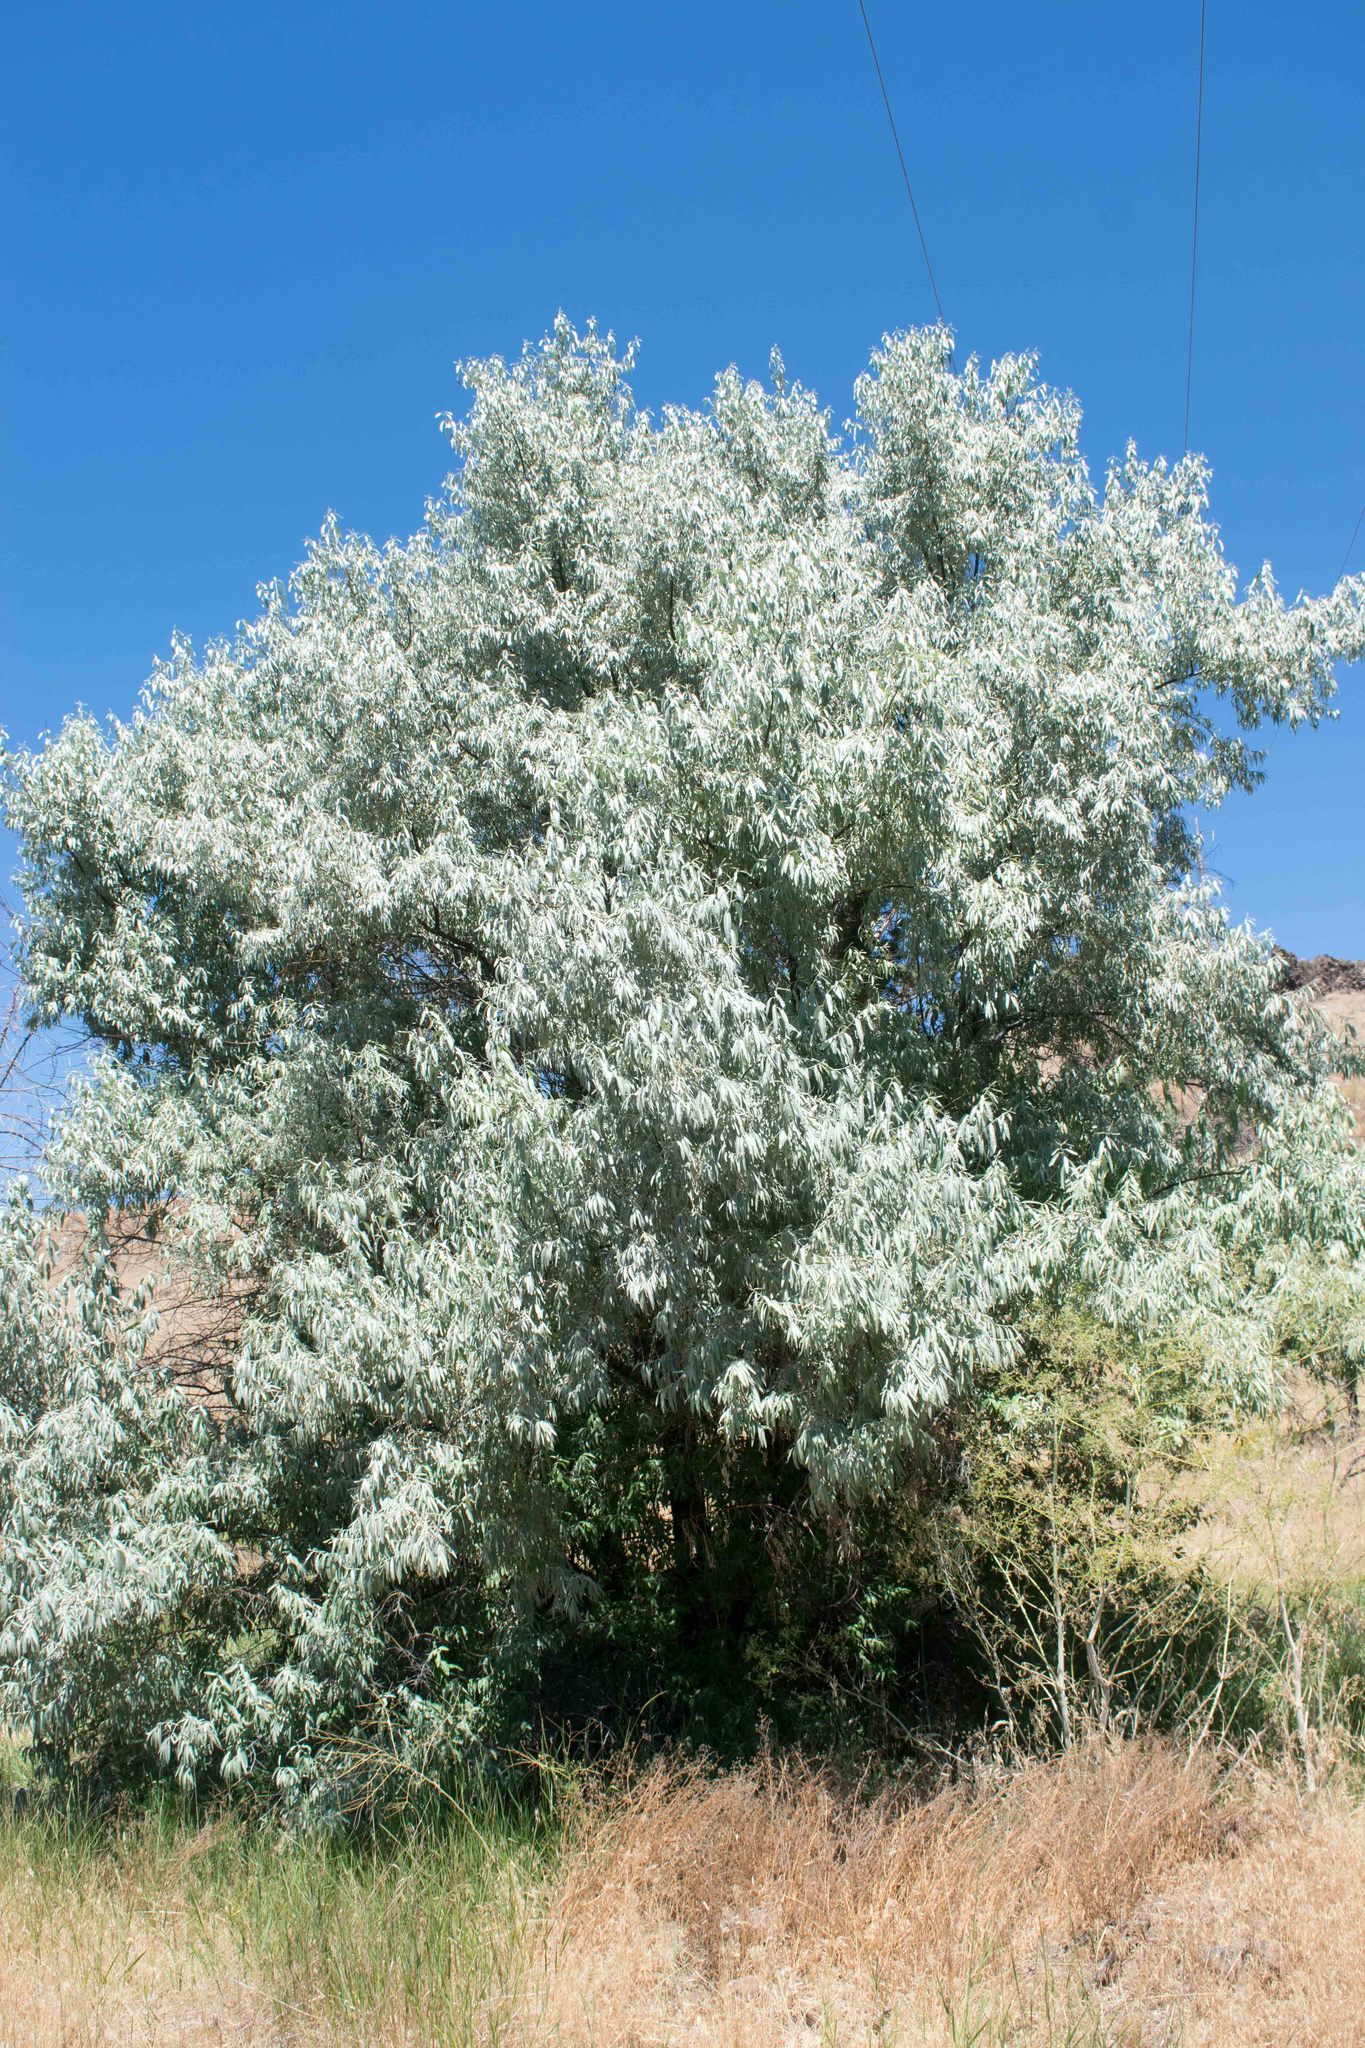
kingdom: Plantae
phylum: Tracheophyta
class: Magnoliopsida
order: Rosales
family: Elaeagnaceae
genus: Elaeagnus
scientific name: Elaeagnus angustifolia
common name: Russian olive
